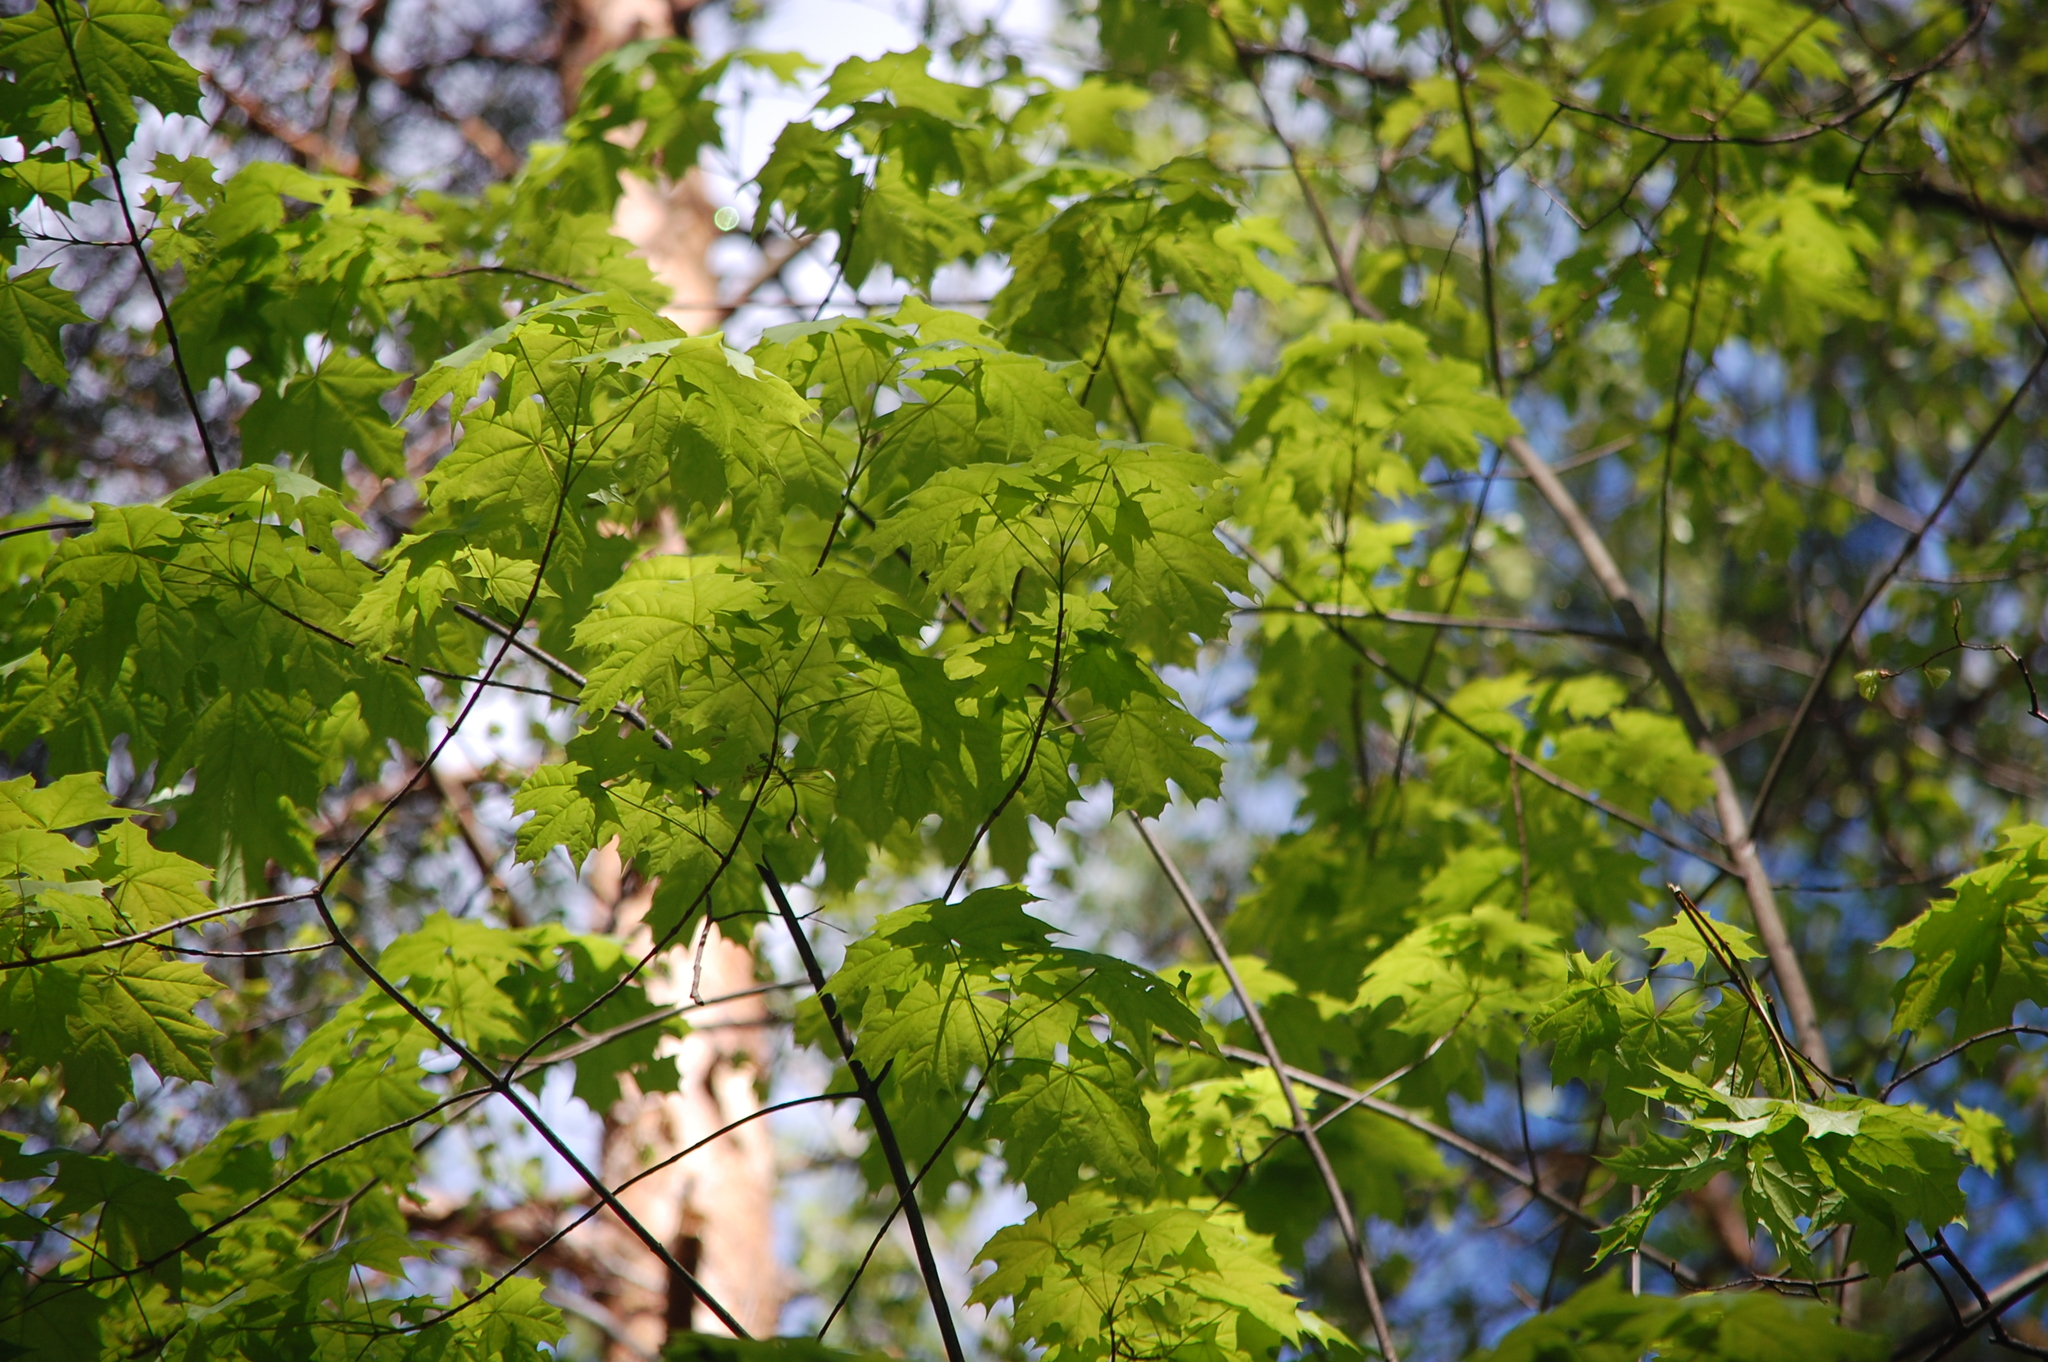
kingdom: Plantae
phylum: Tracheophyta
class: Magnoliopsida
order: Sapindales
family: Sapindaceae
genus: Acer
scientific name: Acer platanoides
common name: Norway maple
